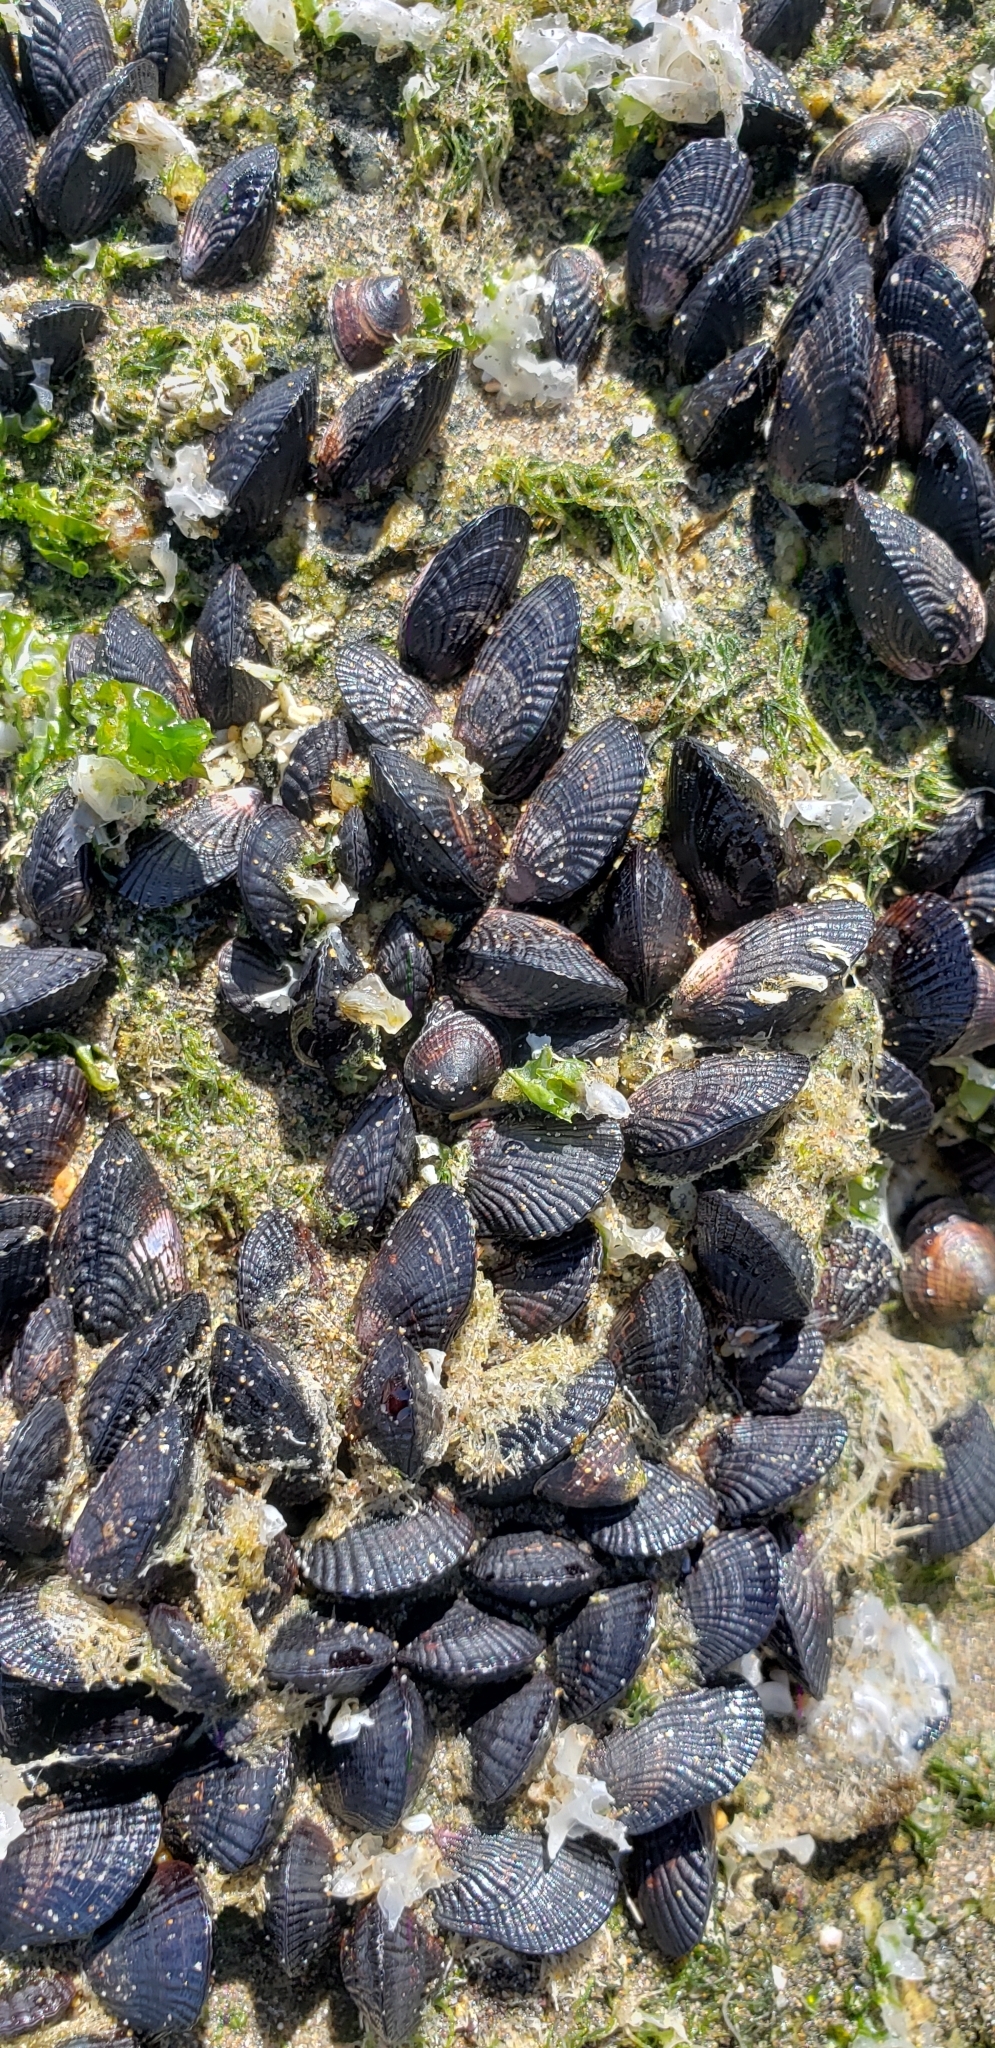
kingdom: Animalia
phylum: Mollusca
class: Bivalvia
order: Mytilida
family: Mytilidae
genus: Perumytilus
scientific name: Perumytilus purpuratus
